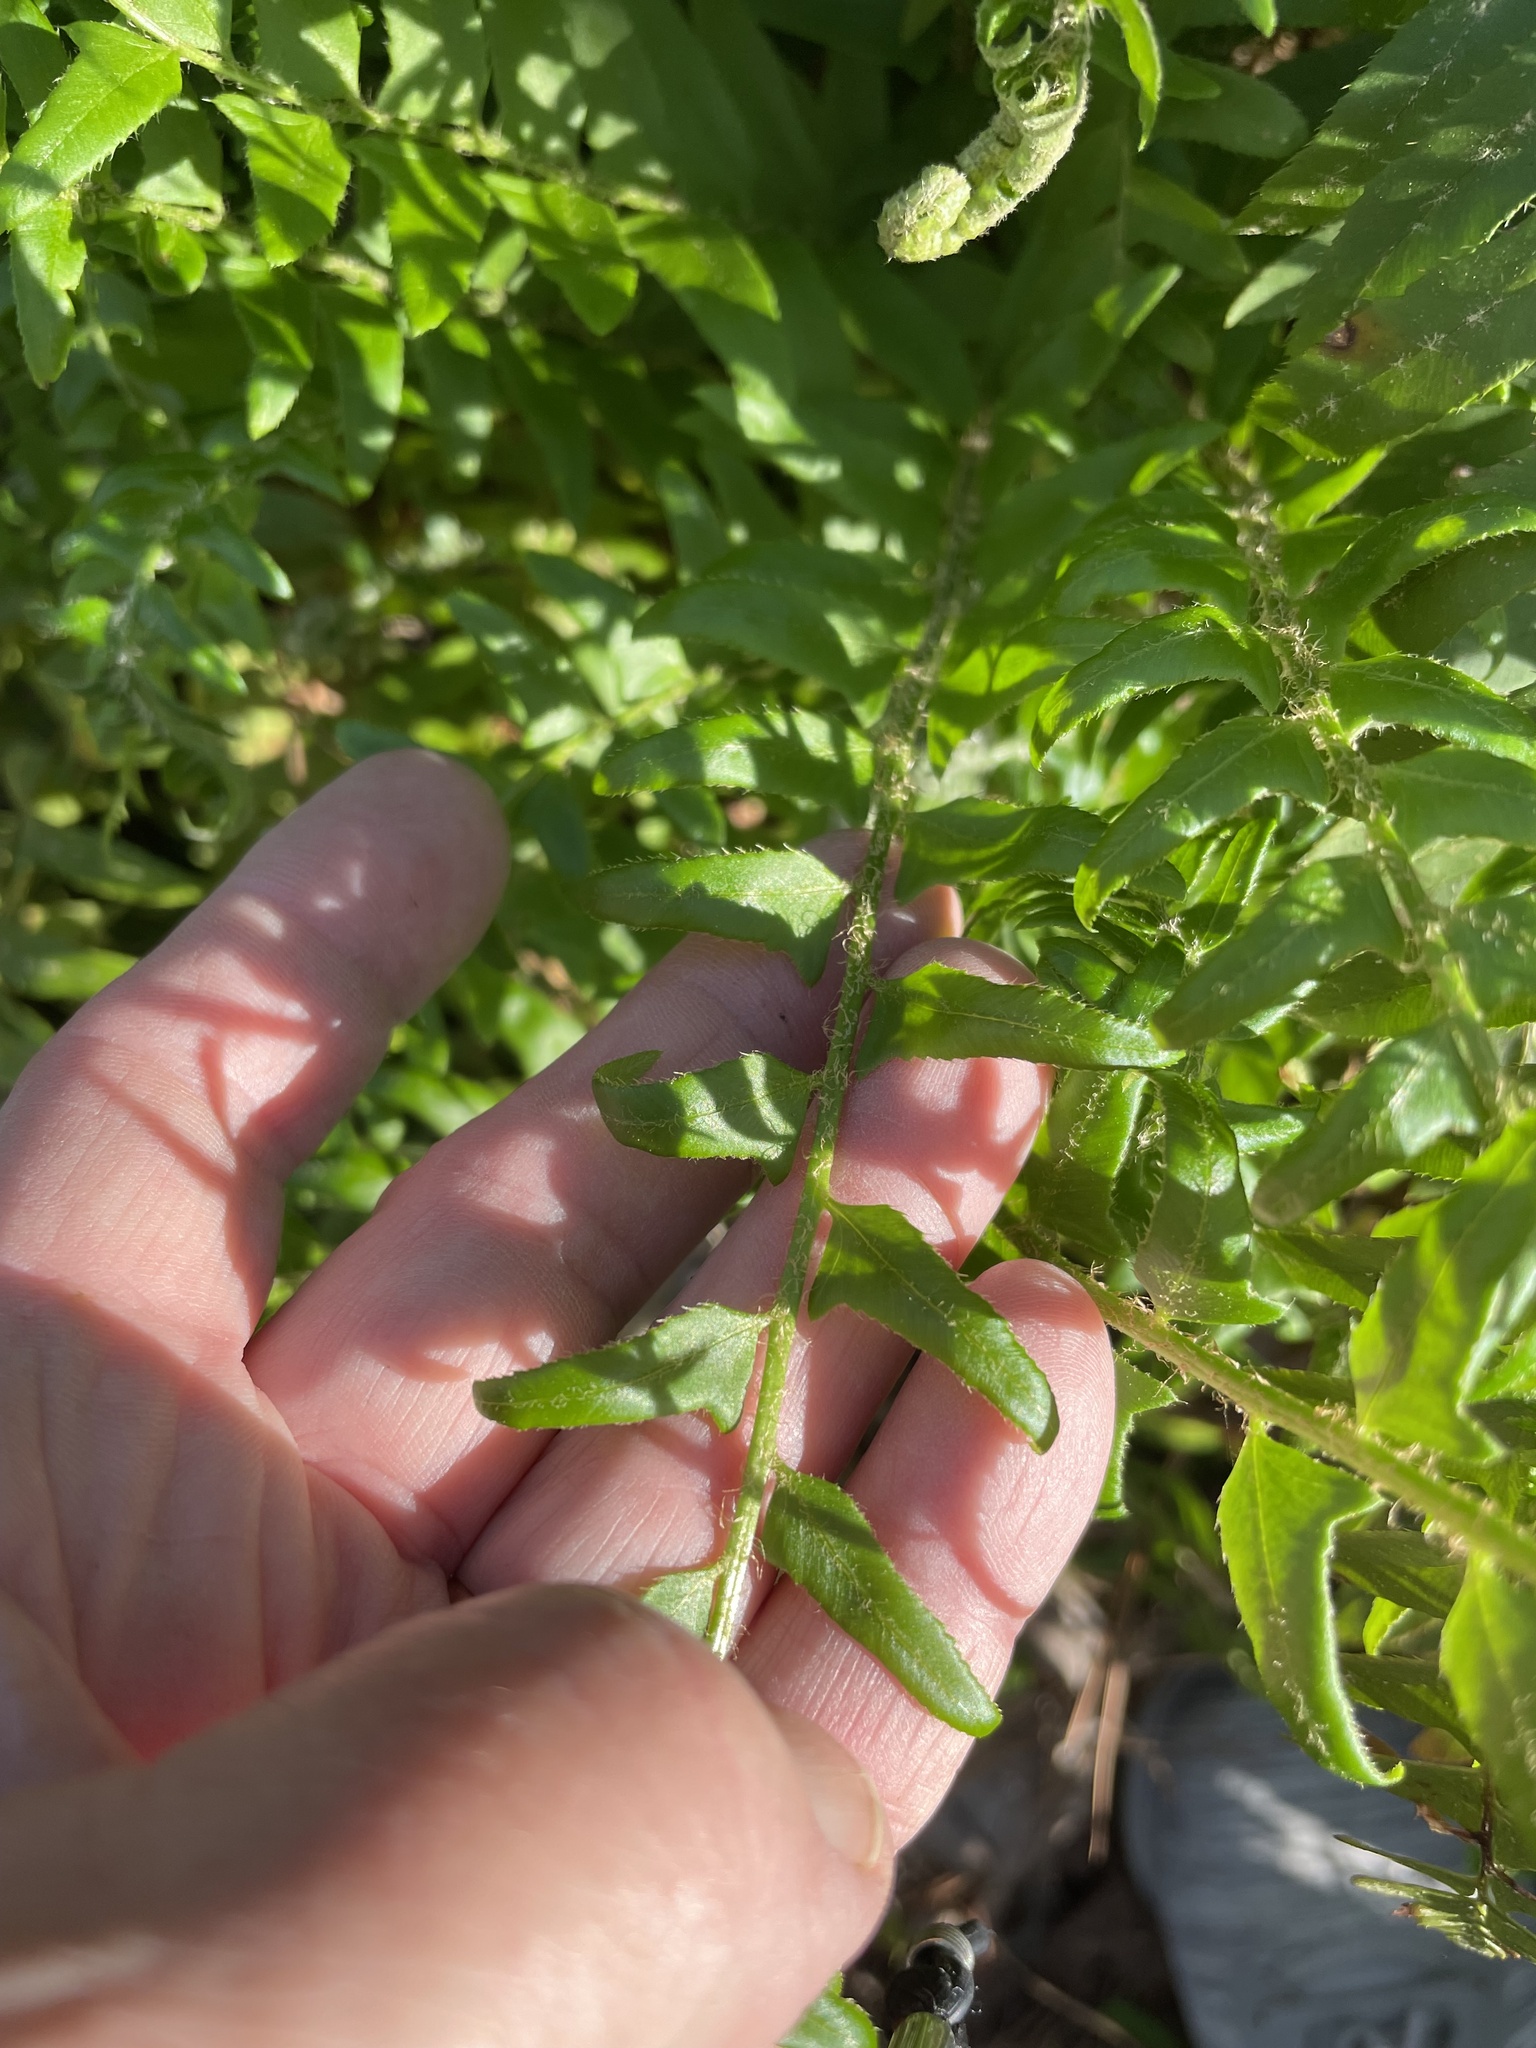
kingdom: Plantae
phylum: Tracheophyta
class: Polypodiopsida
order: Polypodiales
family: Dryopteridaceae
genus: Polystichum
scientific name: Polystichum acrostichoides
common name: Christmas fern
